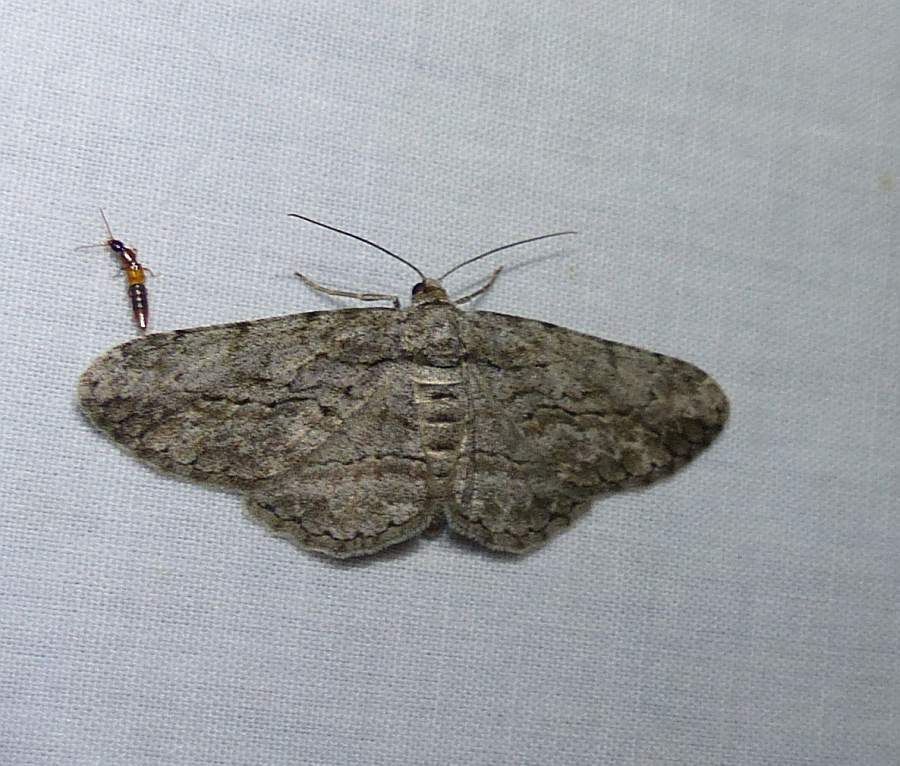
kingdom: Animalia
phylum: Arthropoda
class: Insecta
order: Lepidoptera
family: Geometridae
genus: Anavitrinella
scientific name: Anavitrinella pampinaria
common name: Common gray
